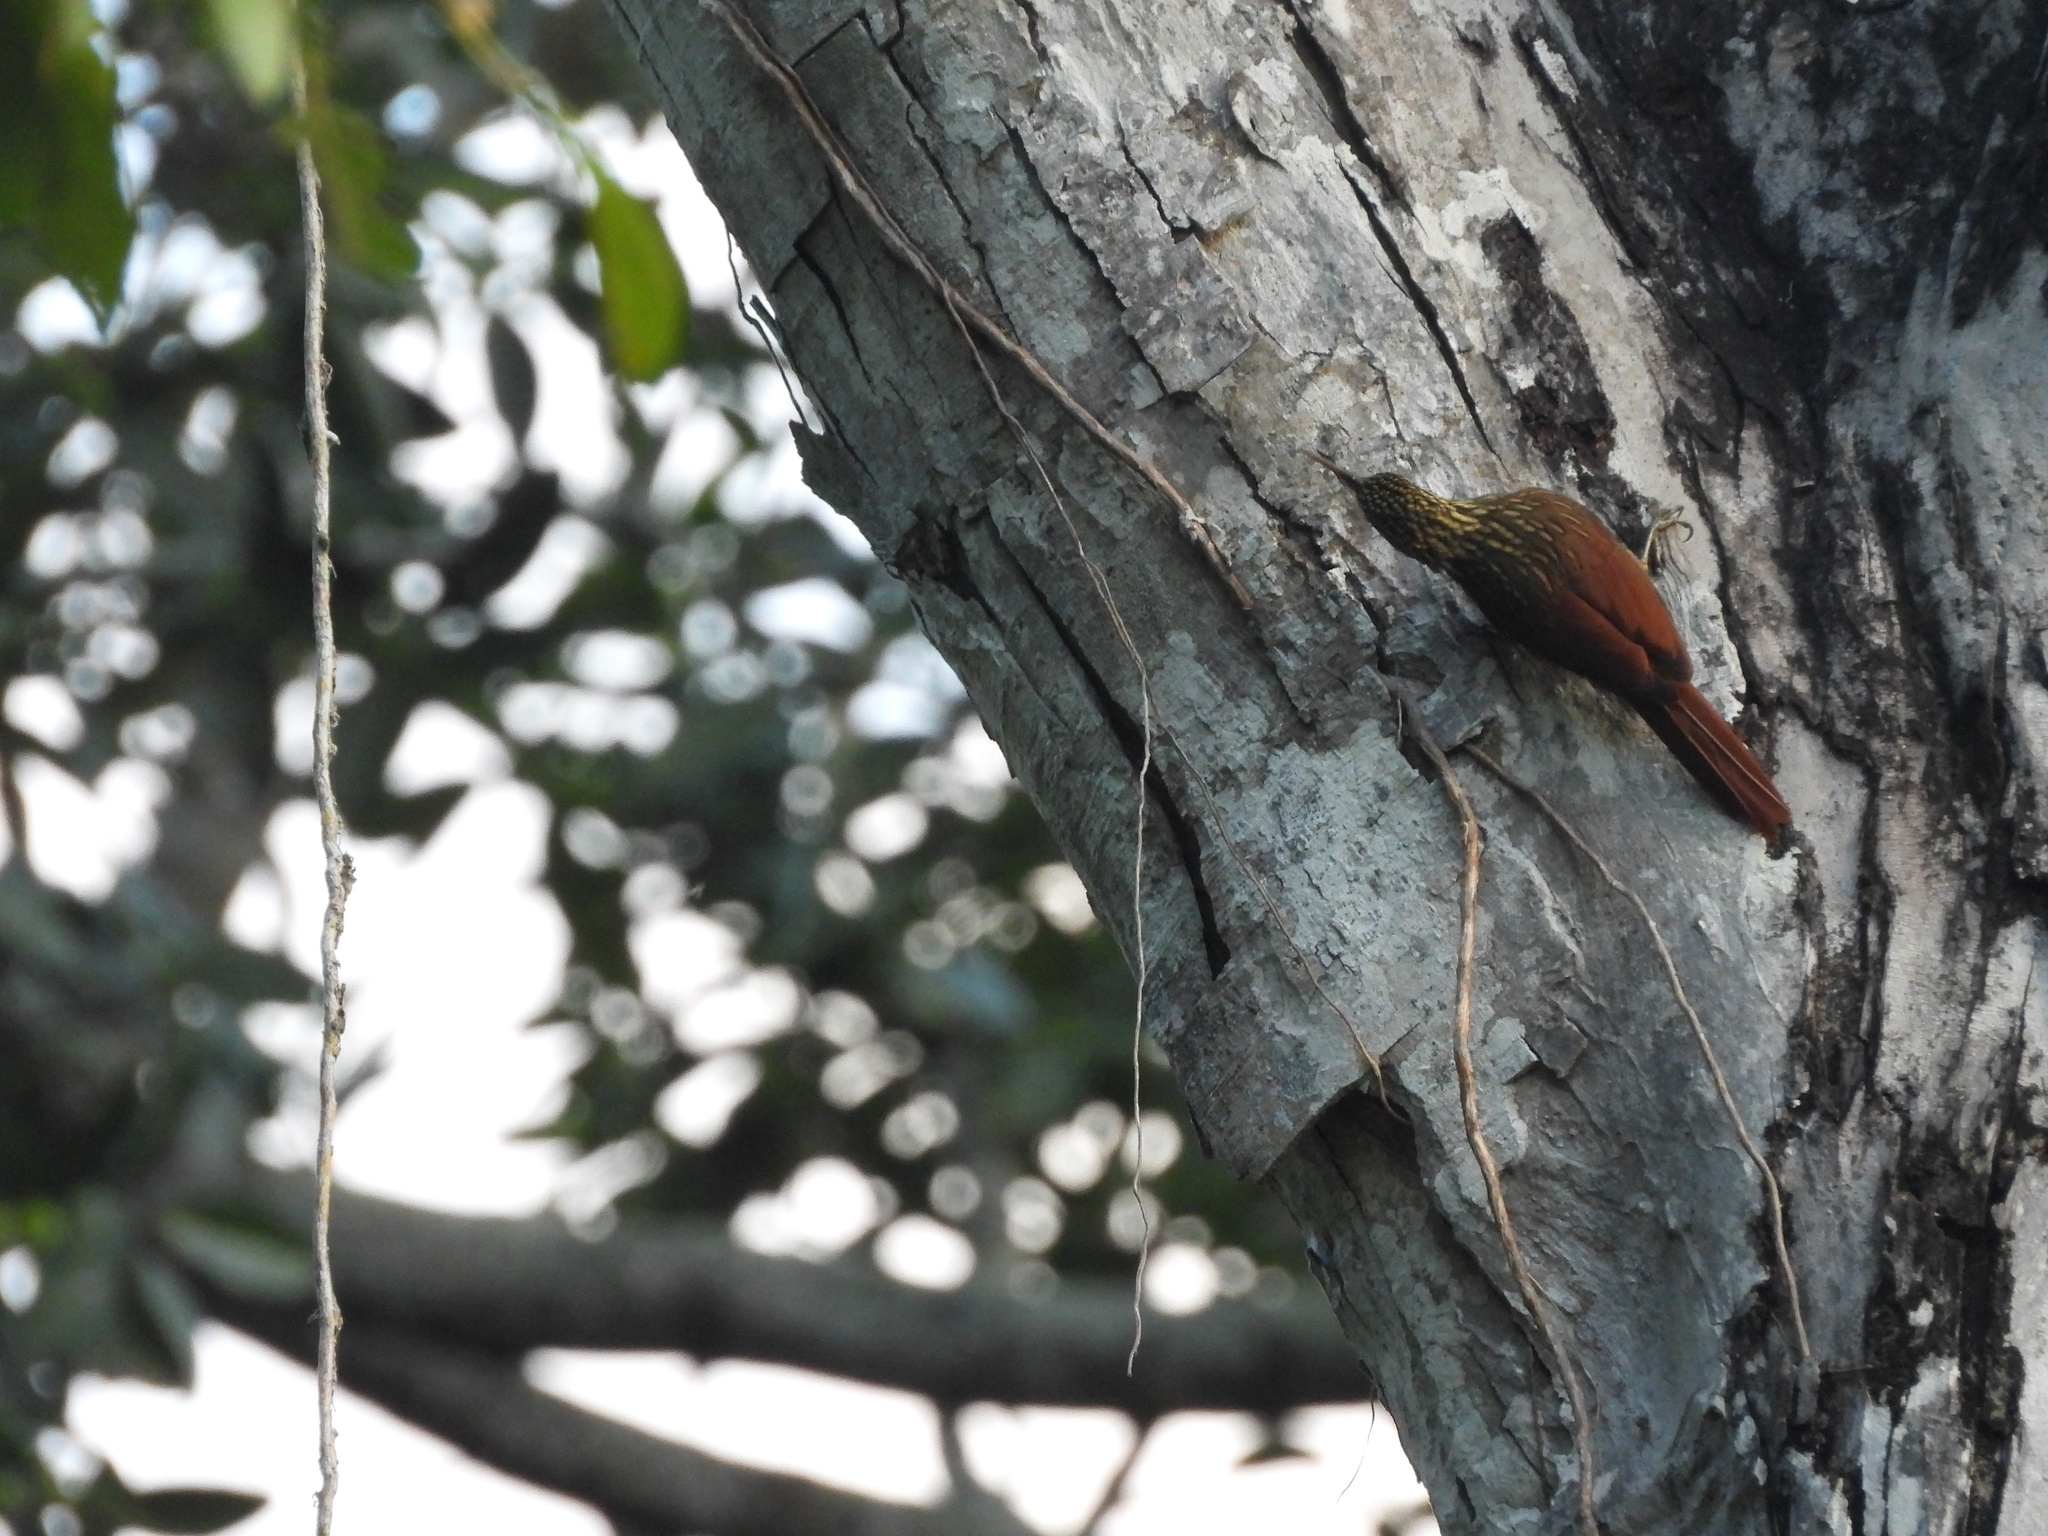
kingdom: Animalia
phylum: Chordata
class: Aves
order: Passeriformes
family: Furnariidae
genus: Xiphorhynchus
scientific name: Xiphorhynchus flavigaster
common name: Ivory-billed woodcreeper
